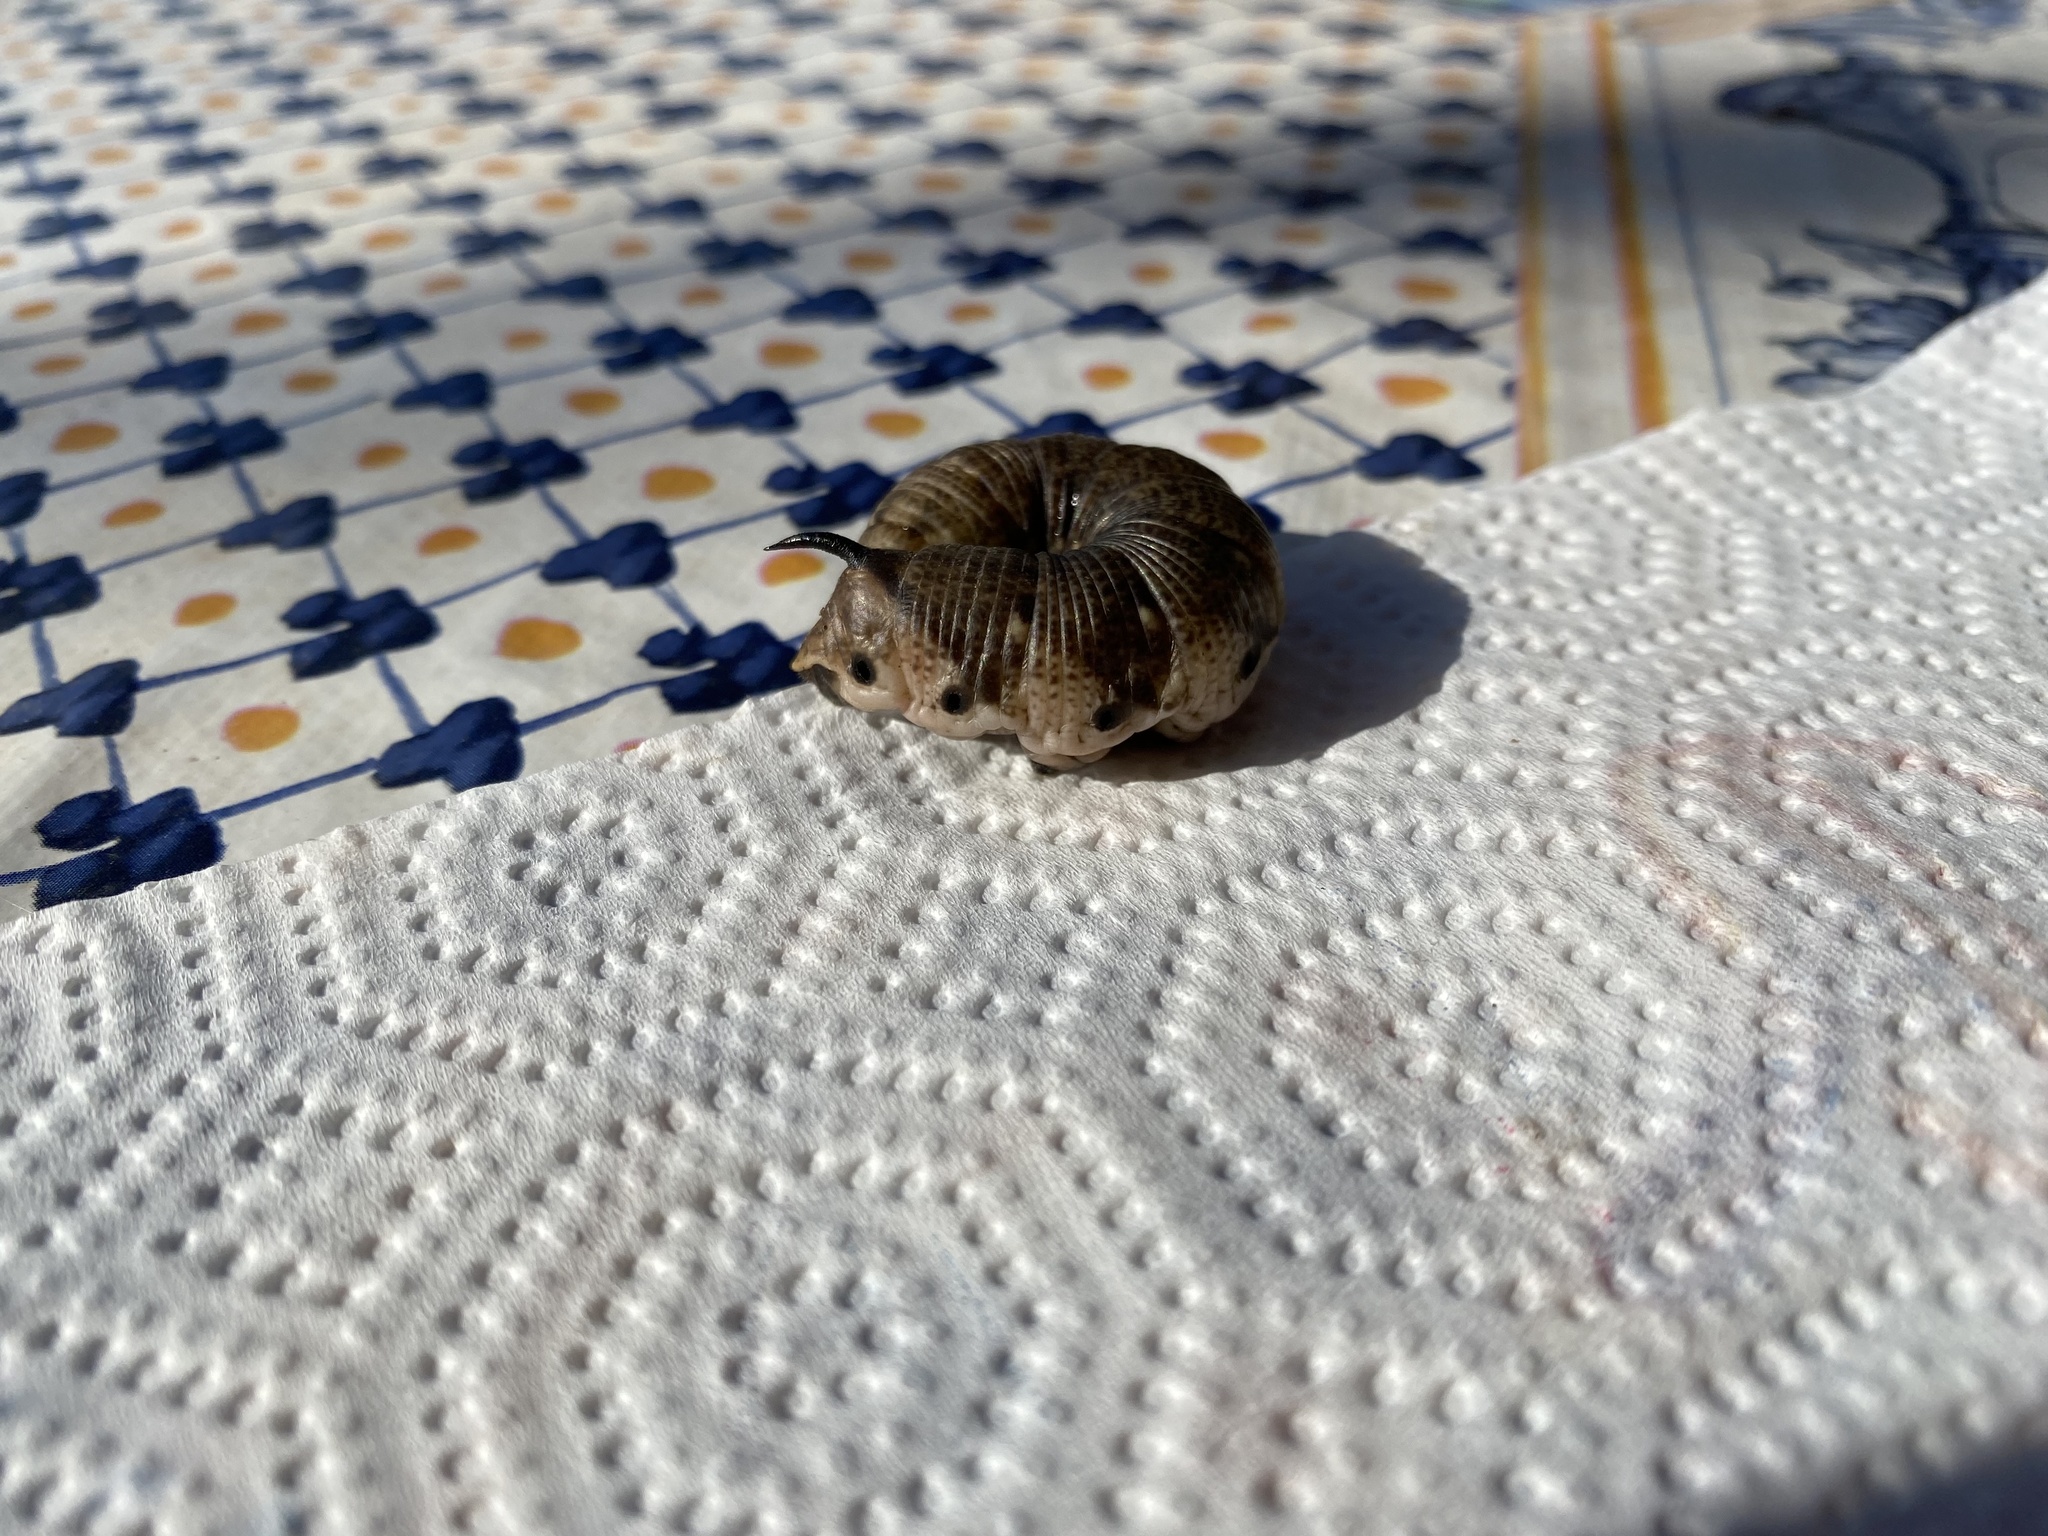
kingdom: Animalia
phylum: Arthropoda
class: Insecta
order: Lepidoptera
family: Sphingidae
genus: Agrius
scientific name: Agrius convolvuli
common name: Convolvulus hawkmoth
